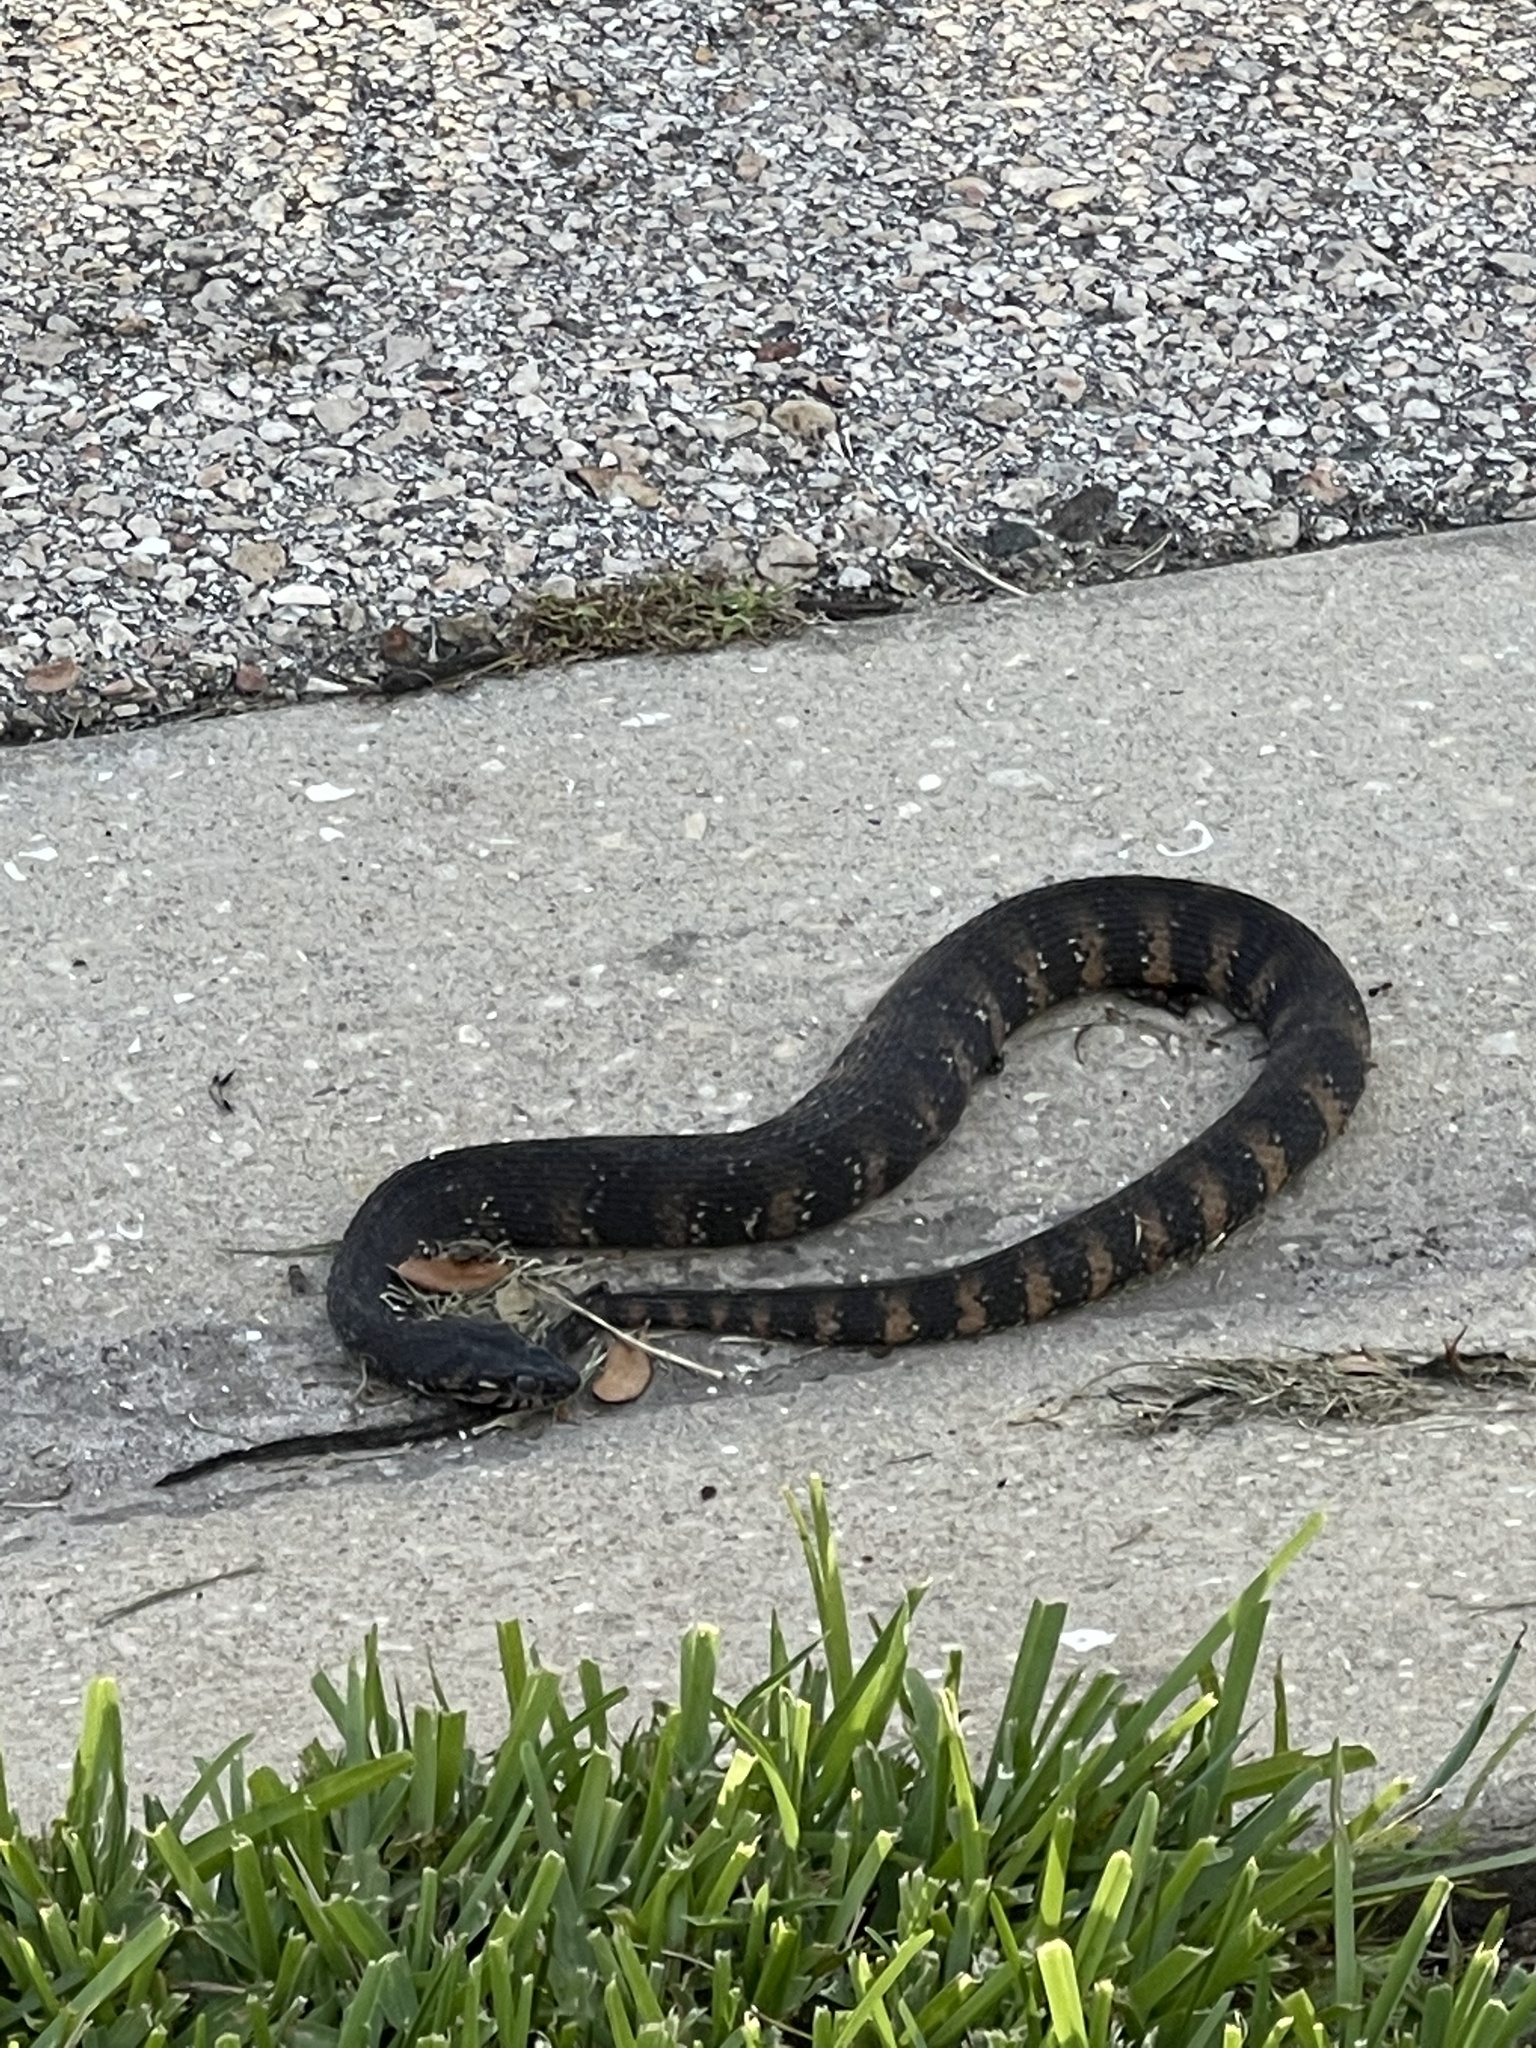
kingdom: Animalia
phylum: Chordata
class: Squamata
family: Colubridae
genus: Nerodia
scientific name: Nerodia fasciata
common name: Southern water snake
